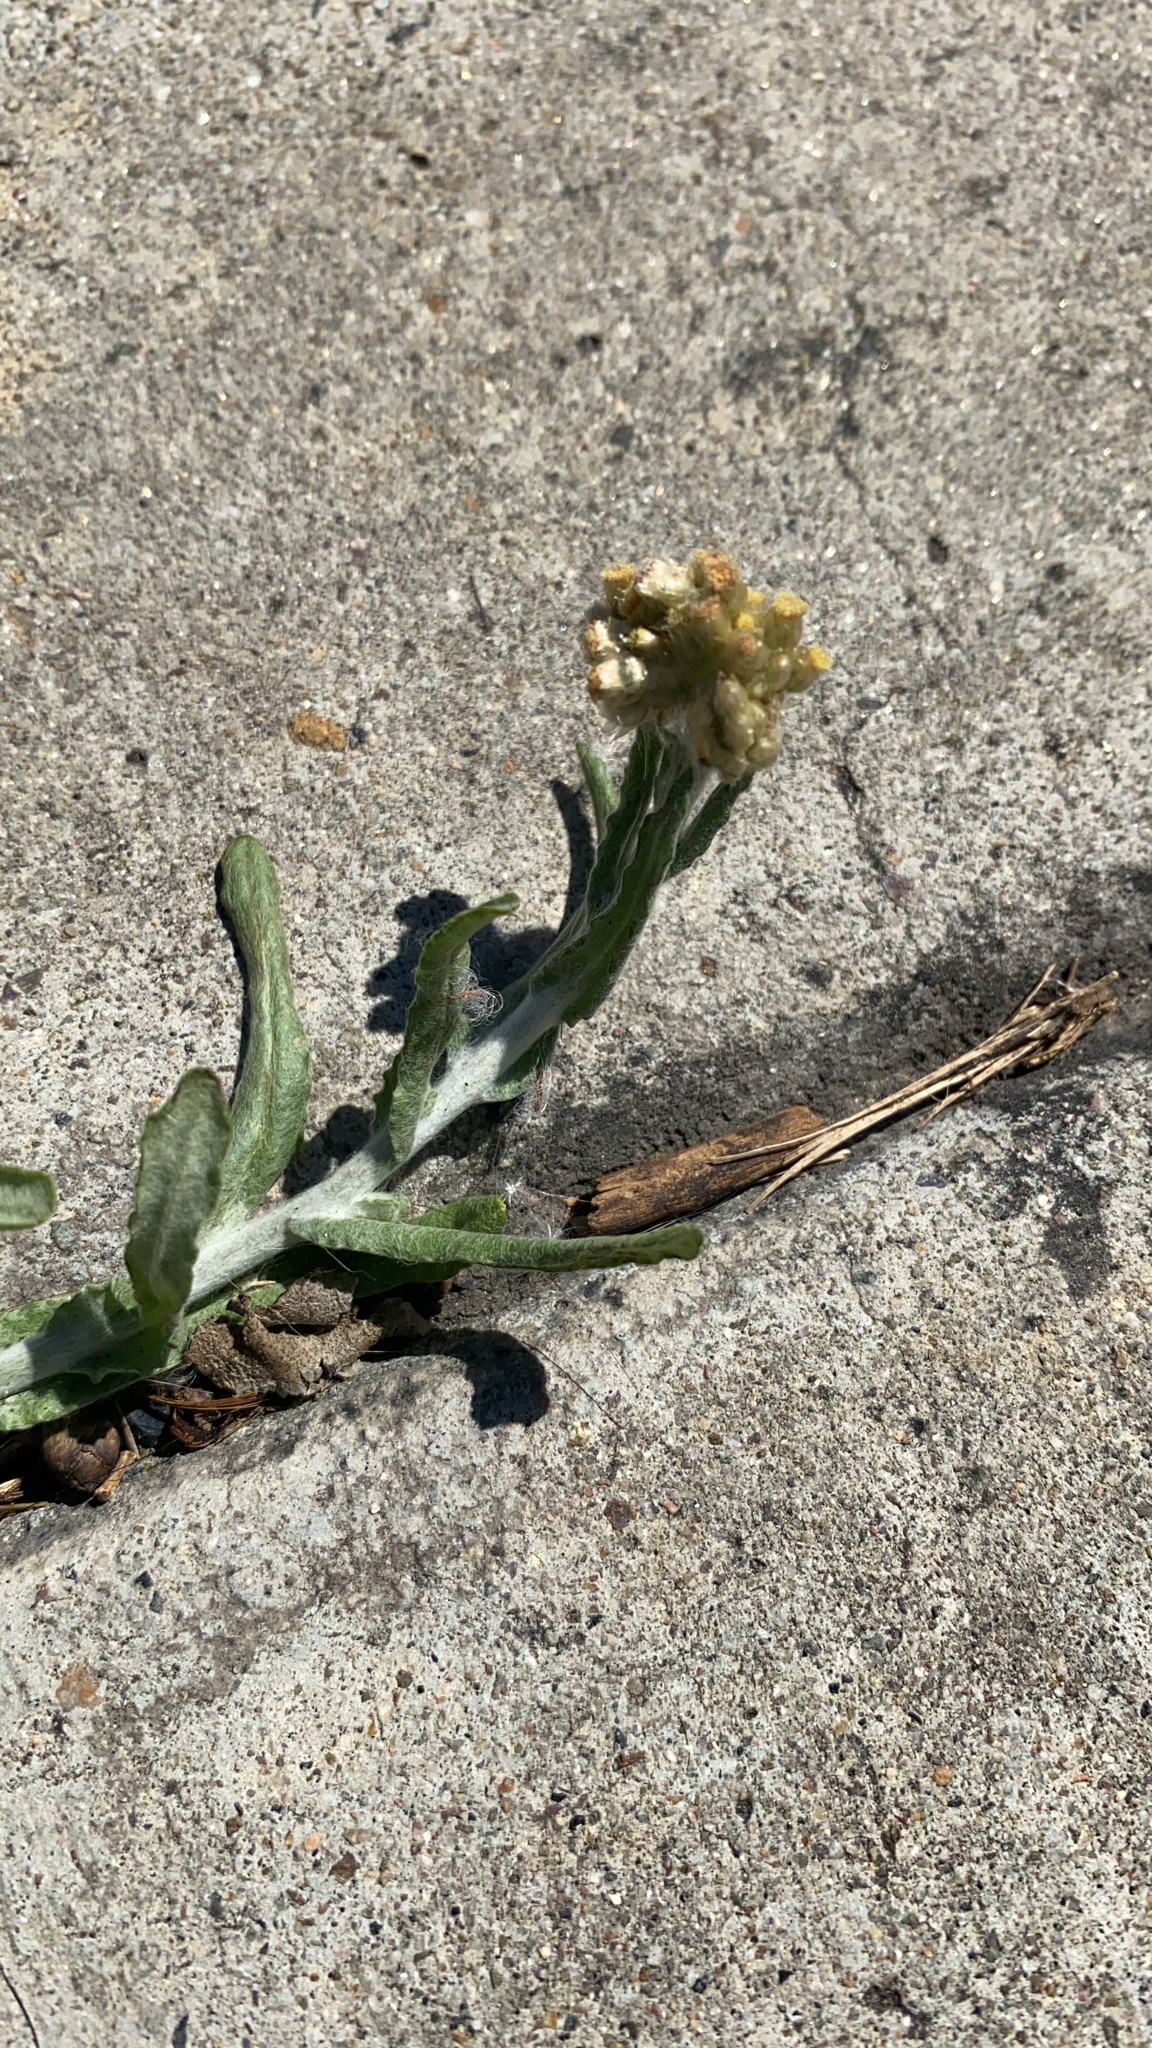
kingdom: Plantae
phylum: Tracheophyta
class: Magnoliopsida
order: Asterales
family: Asteraceae
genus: Helichrysum
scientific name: Helichrysum luteoalbum
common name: Daisy
